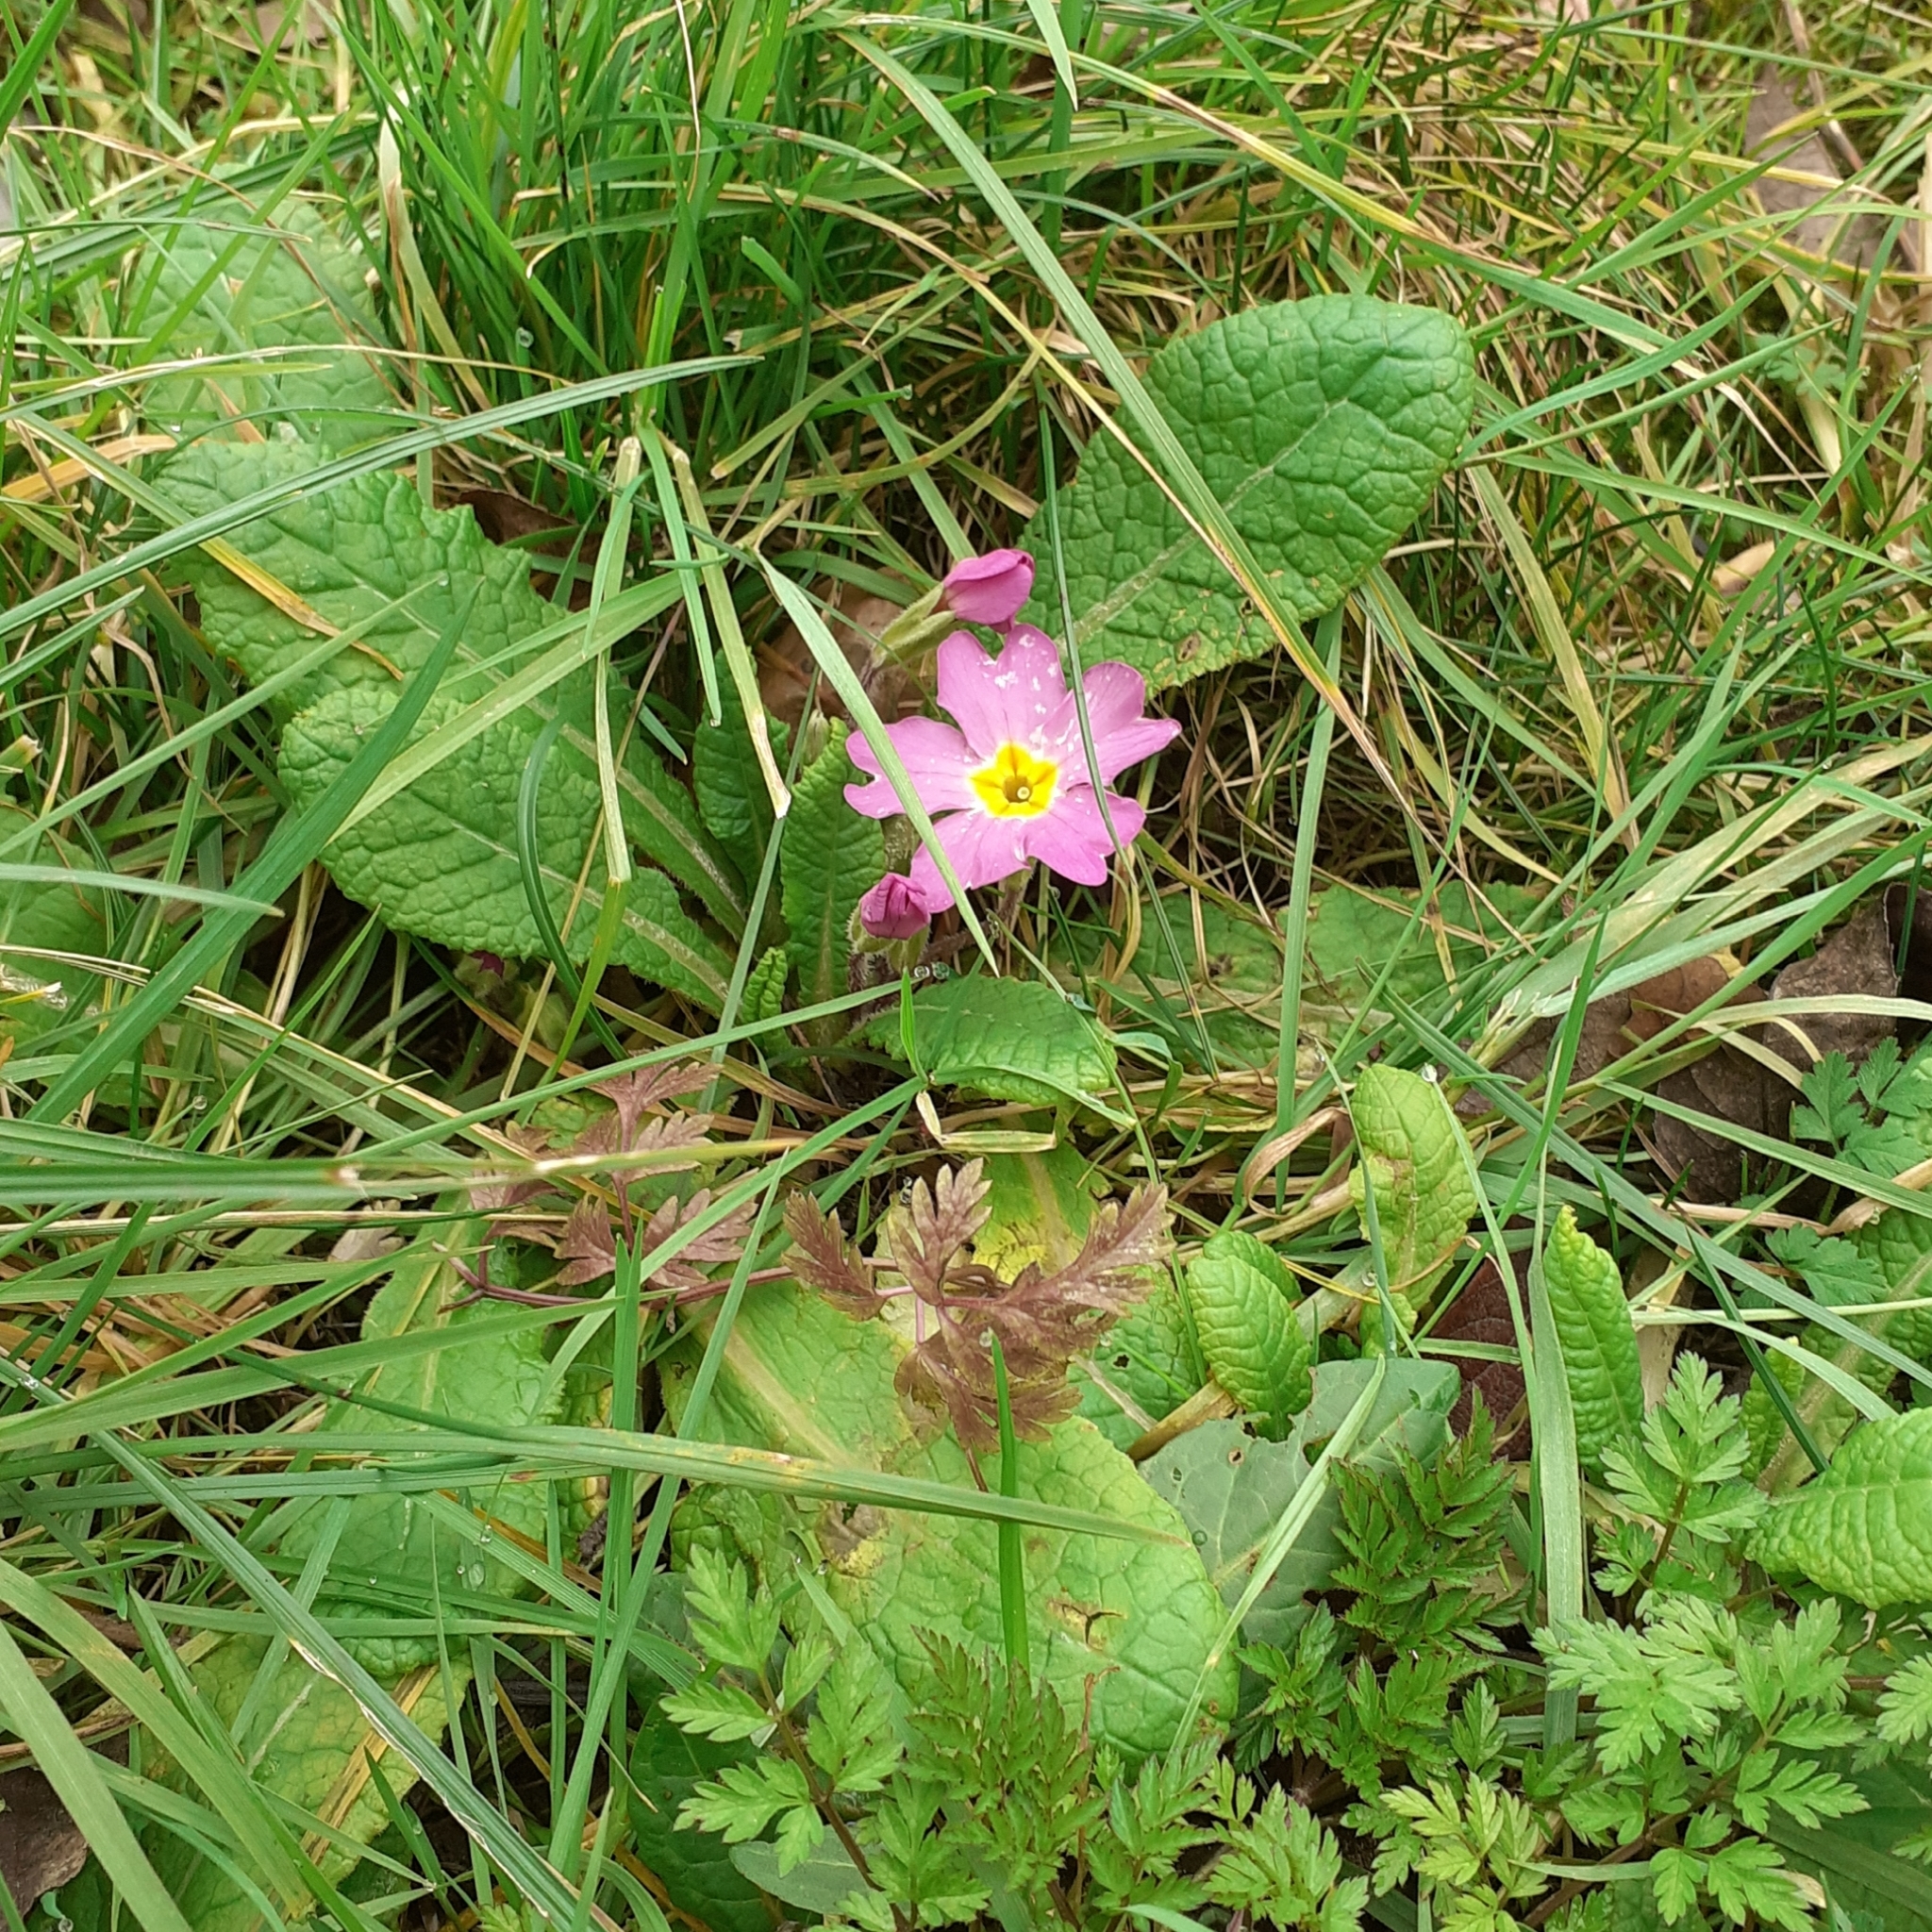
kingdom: Plantae
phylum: Tracheophyta
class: Magnoliopsida
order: Ericales
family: Primulaceae
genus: Primula
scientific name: Primula vulgaris
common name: Primrose
